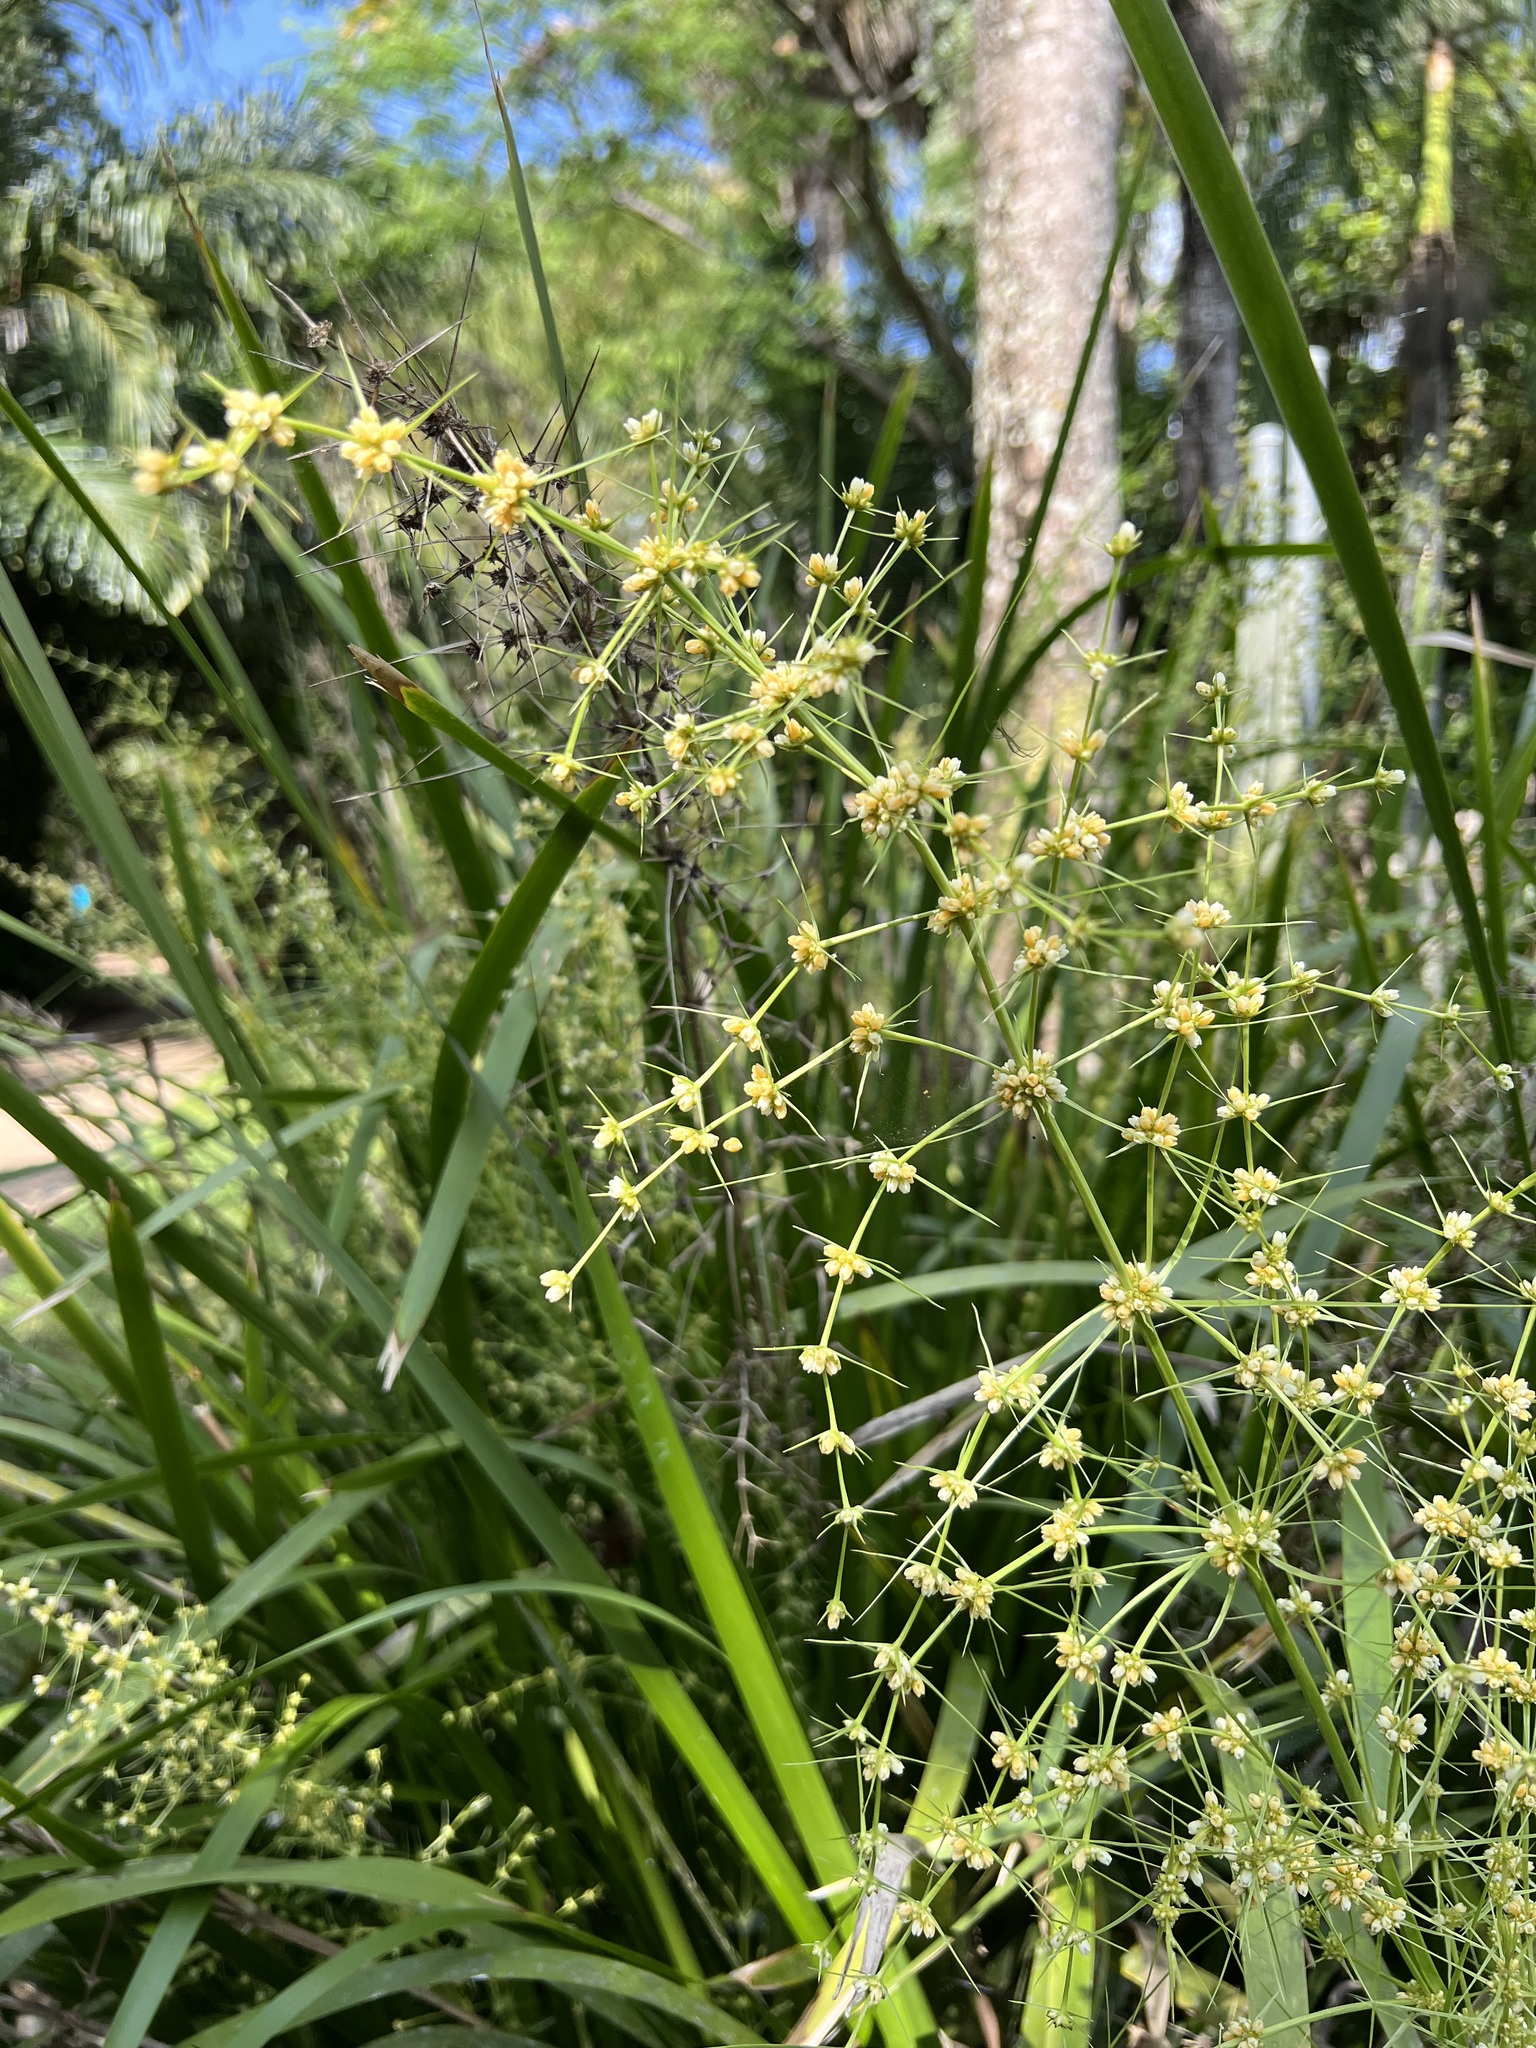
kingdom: Plantae
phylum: Tracheophyta
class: Liliopsida
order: Asparagales
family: Asparagaceae
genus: Lomandra
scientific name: Lomandra hystrix
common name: Creek mat-rush
